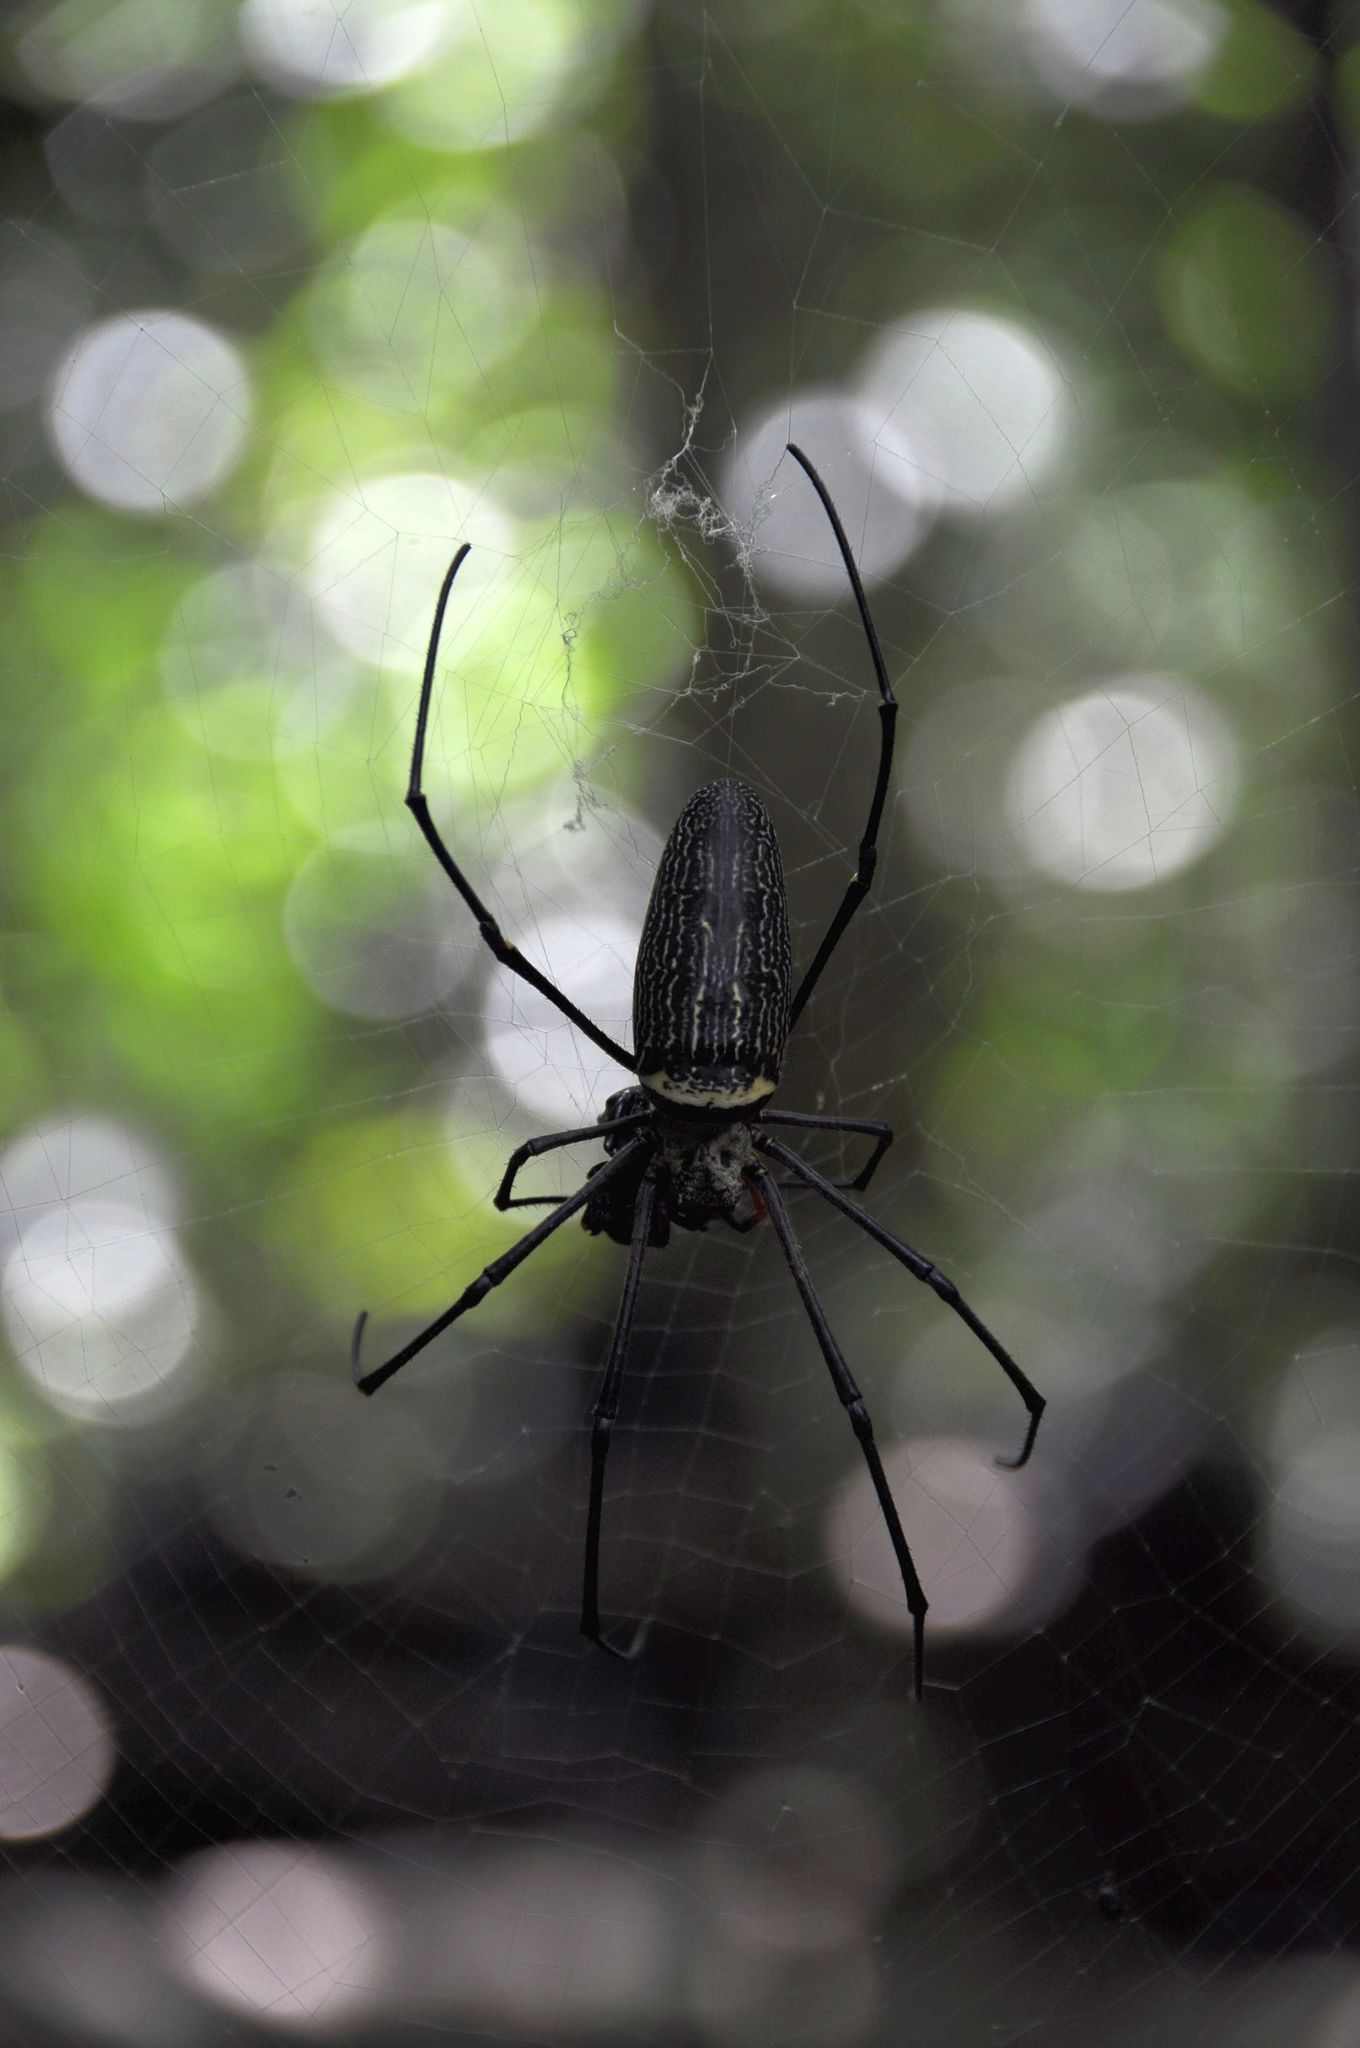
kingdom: Animalia
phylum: Arthropoda
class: Arachnida
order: Araneae
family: Araneidae
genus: Nephila
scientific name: Nephila pilipes
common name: Giant golden orb weaver
